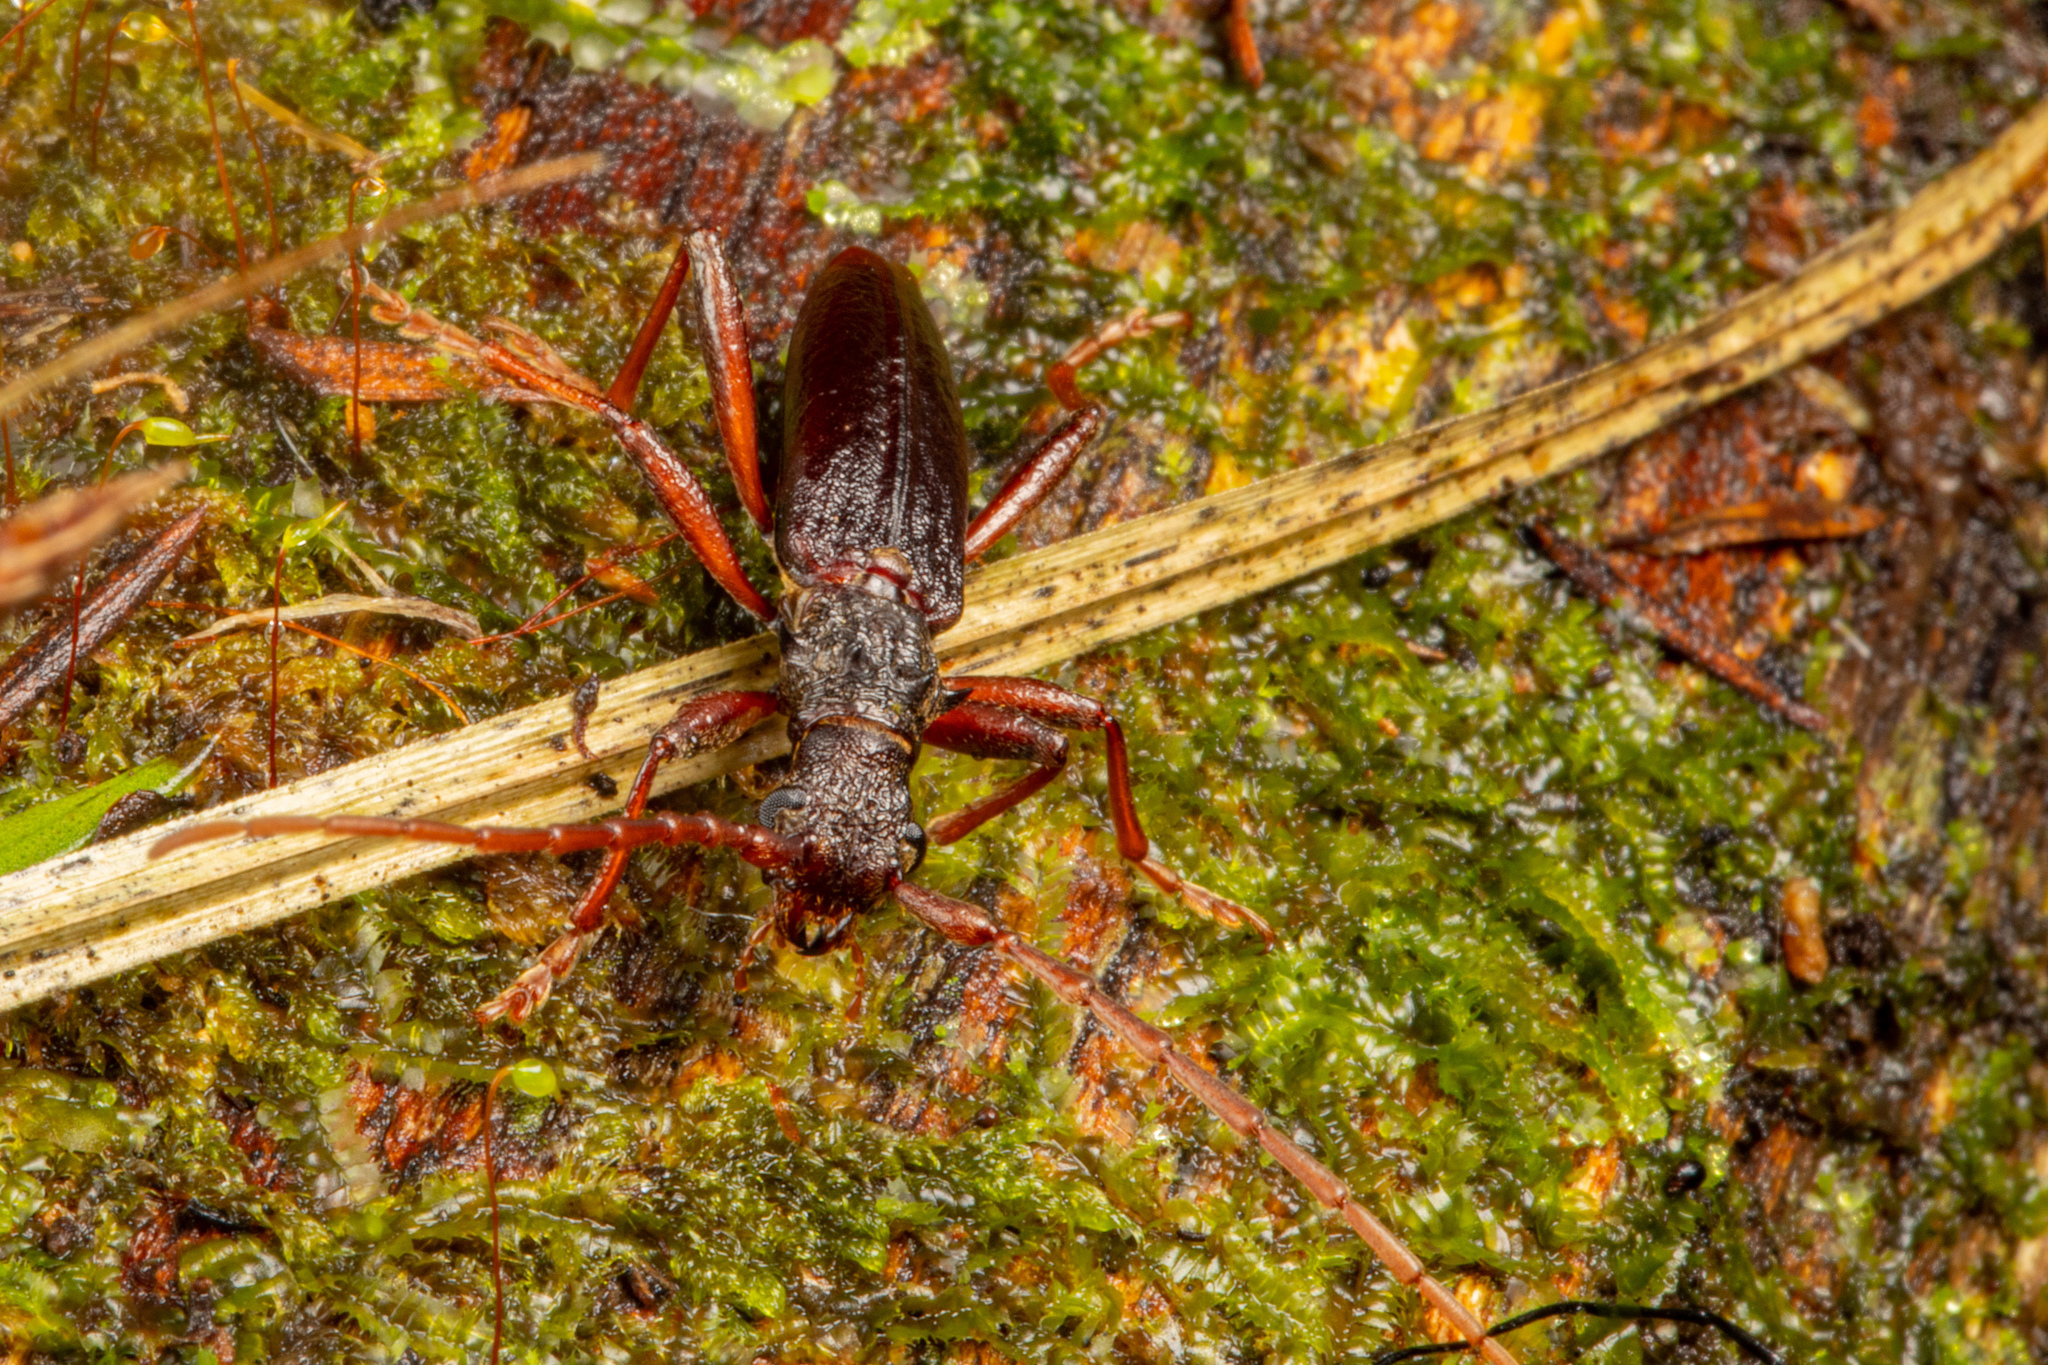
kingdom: Animalia
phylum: Arthropoda
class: Insecta
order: Coleoptera
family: Cerambycidae
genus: Nesoptychias
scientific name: Nesoptychias
